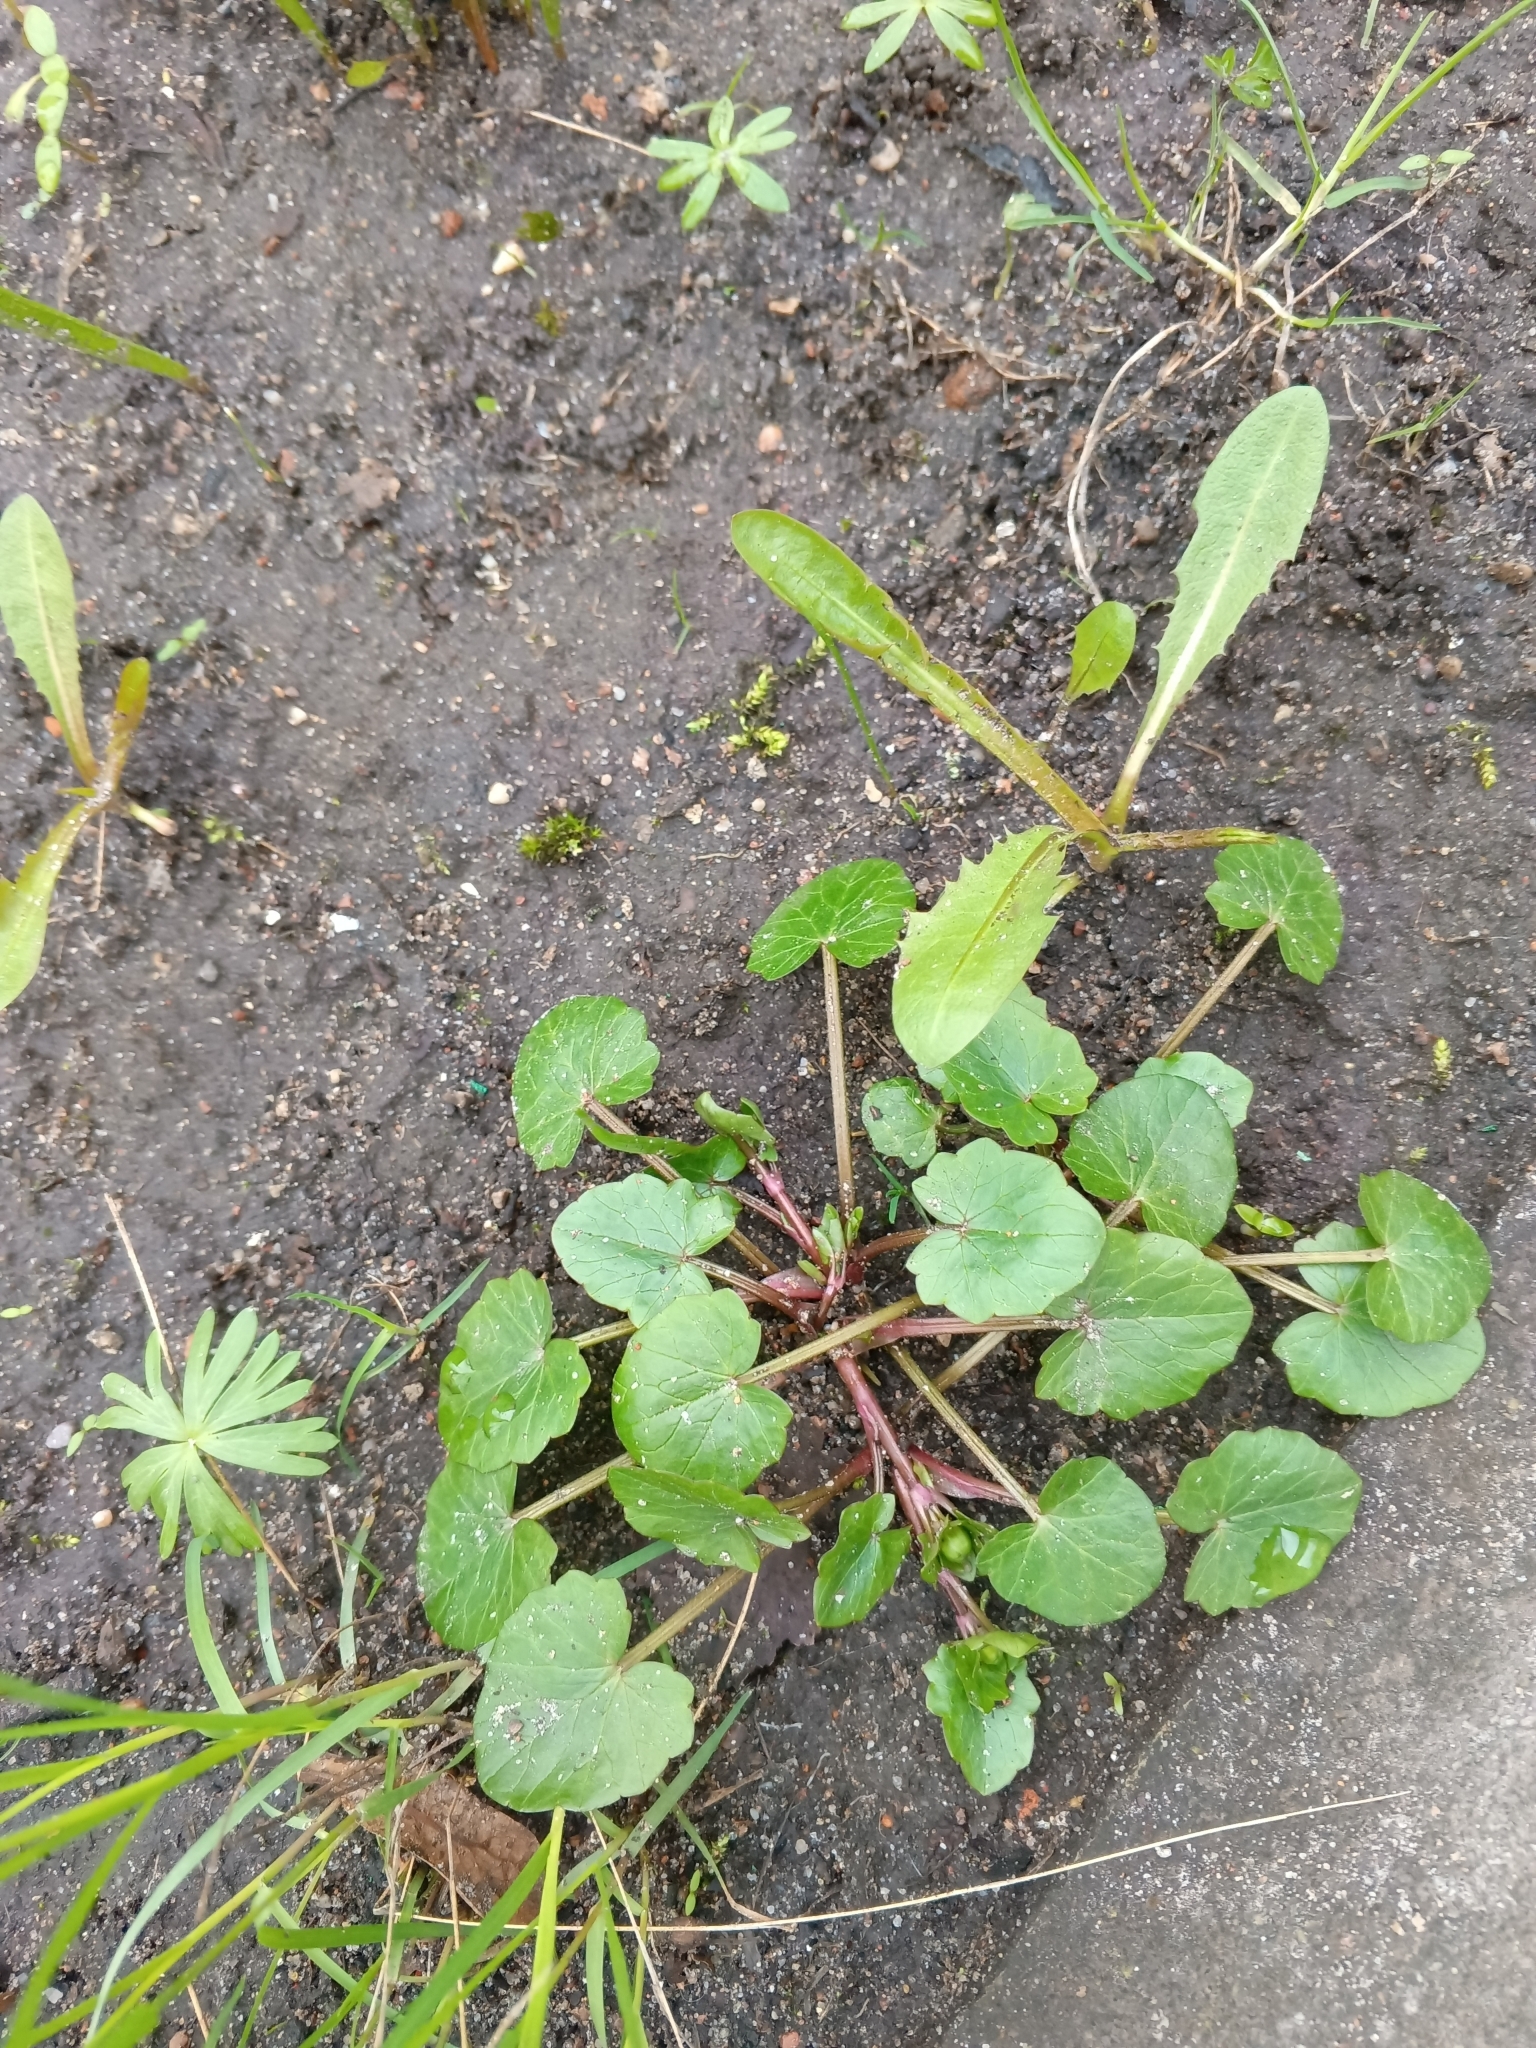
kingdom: Plantae
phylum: Tracheophyta
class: Magnoliopsida
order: Ranunculales
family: Ranunculaceae
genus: Ficaria
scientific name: Ficaria verna
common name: Lesser celandine
